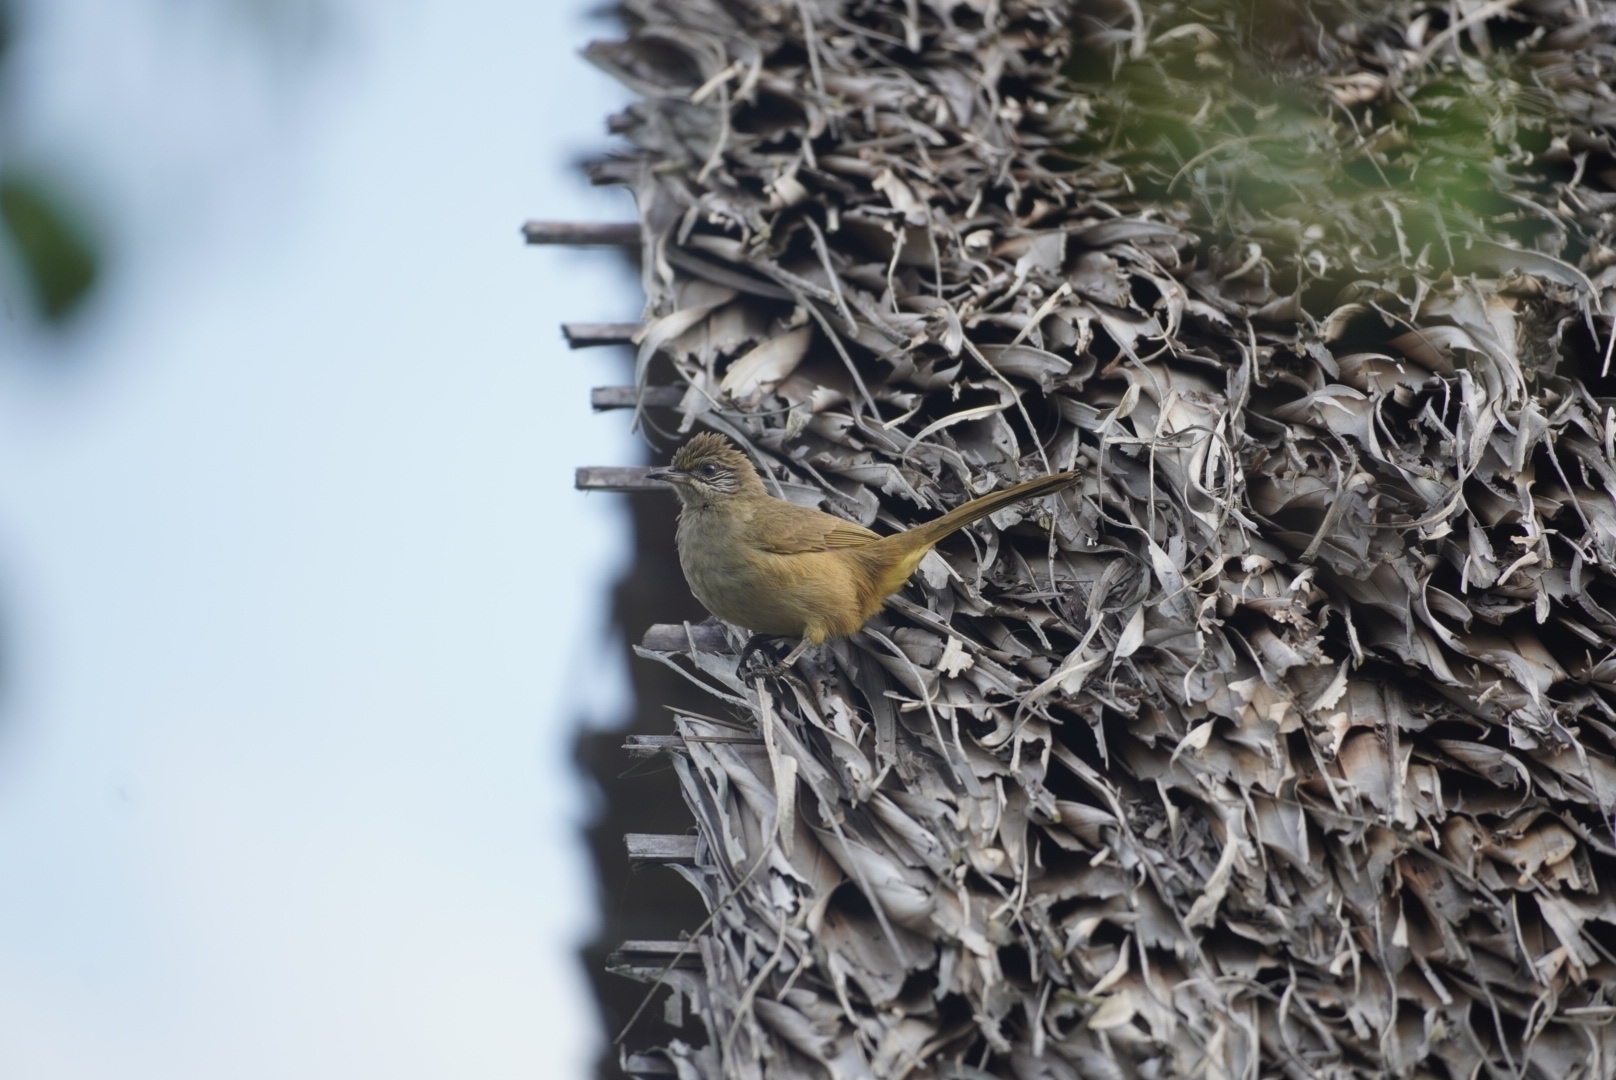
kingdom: Animalia
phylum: Chordata
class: Aves
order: Passeriformes
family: Pycnonotidae
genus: Pycnonotus
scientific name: Pycnonotus blanfordi
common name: Streak-eared bulbul
